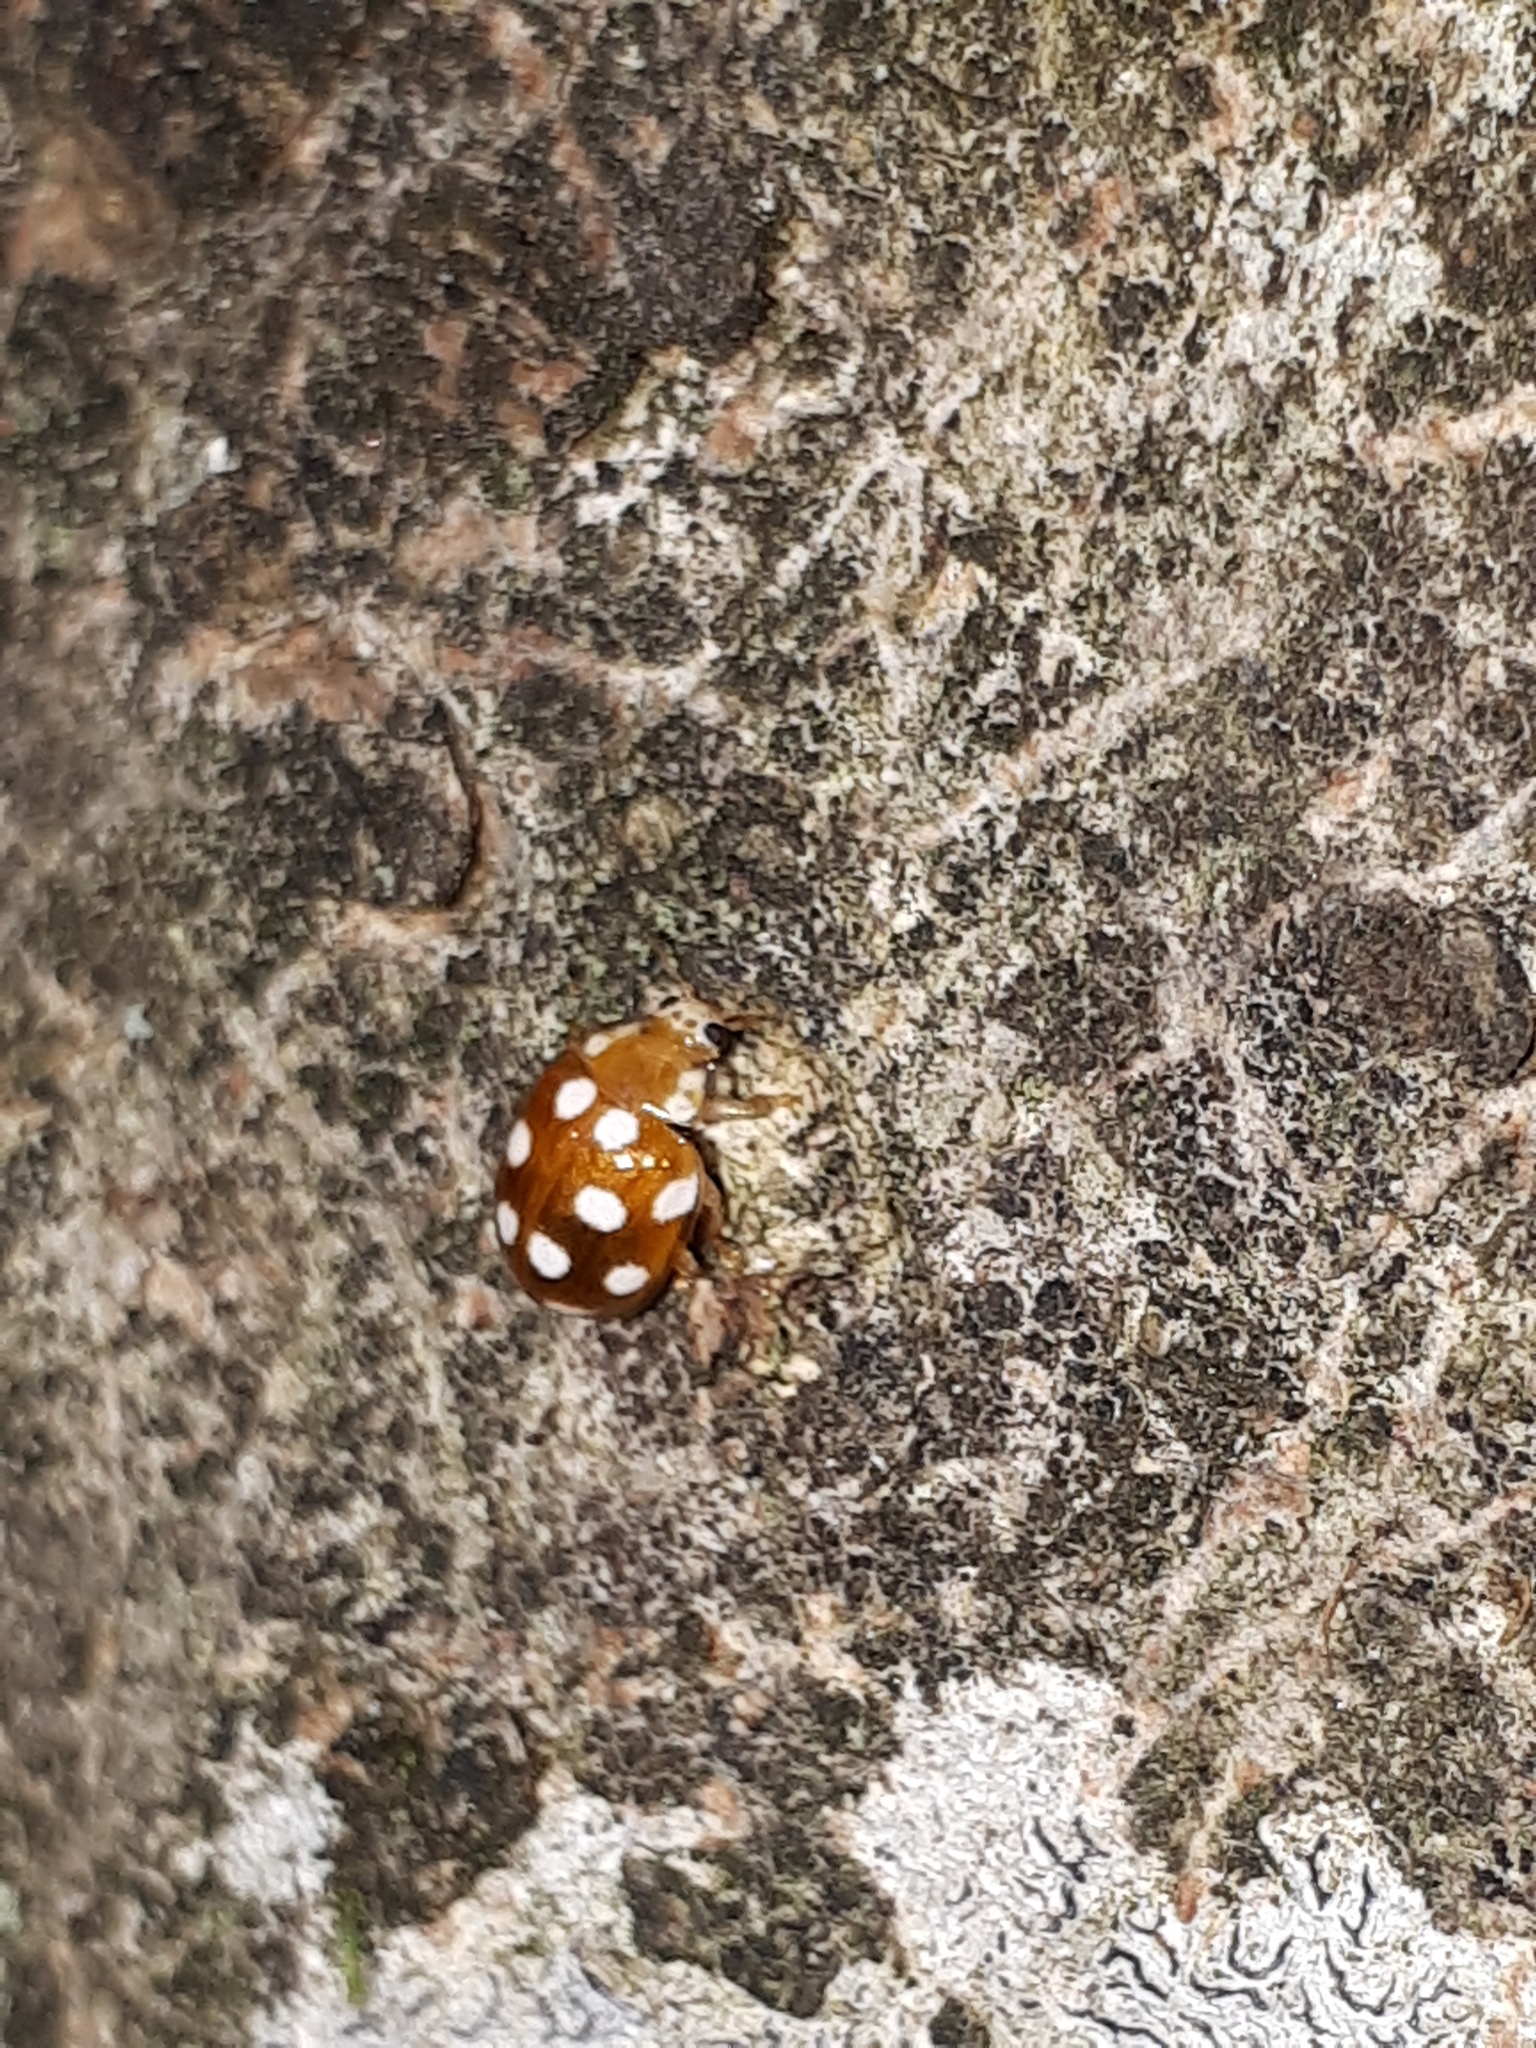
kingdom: Animalia
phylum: Arthropoda
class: Insecta
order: Coleoptera
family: Coccinellidae
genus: Vibidia
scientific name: Vibidia duodecimguttata
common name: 12-spot ladybird
